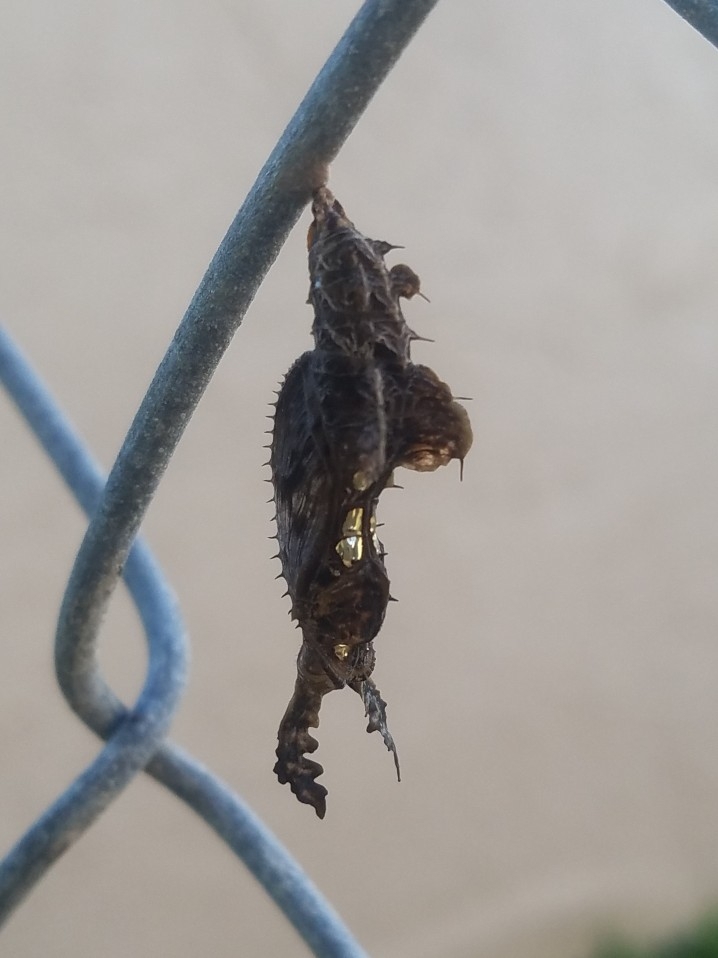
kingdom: Animalia
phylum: Arthropoda
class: Insecta
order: Lepidoptera
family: Nymphalidae
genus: Heliconius
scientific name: Heliconius charithonia
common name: Zebra long wing
